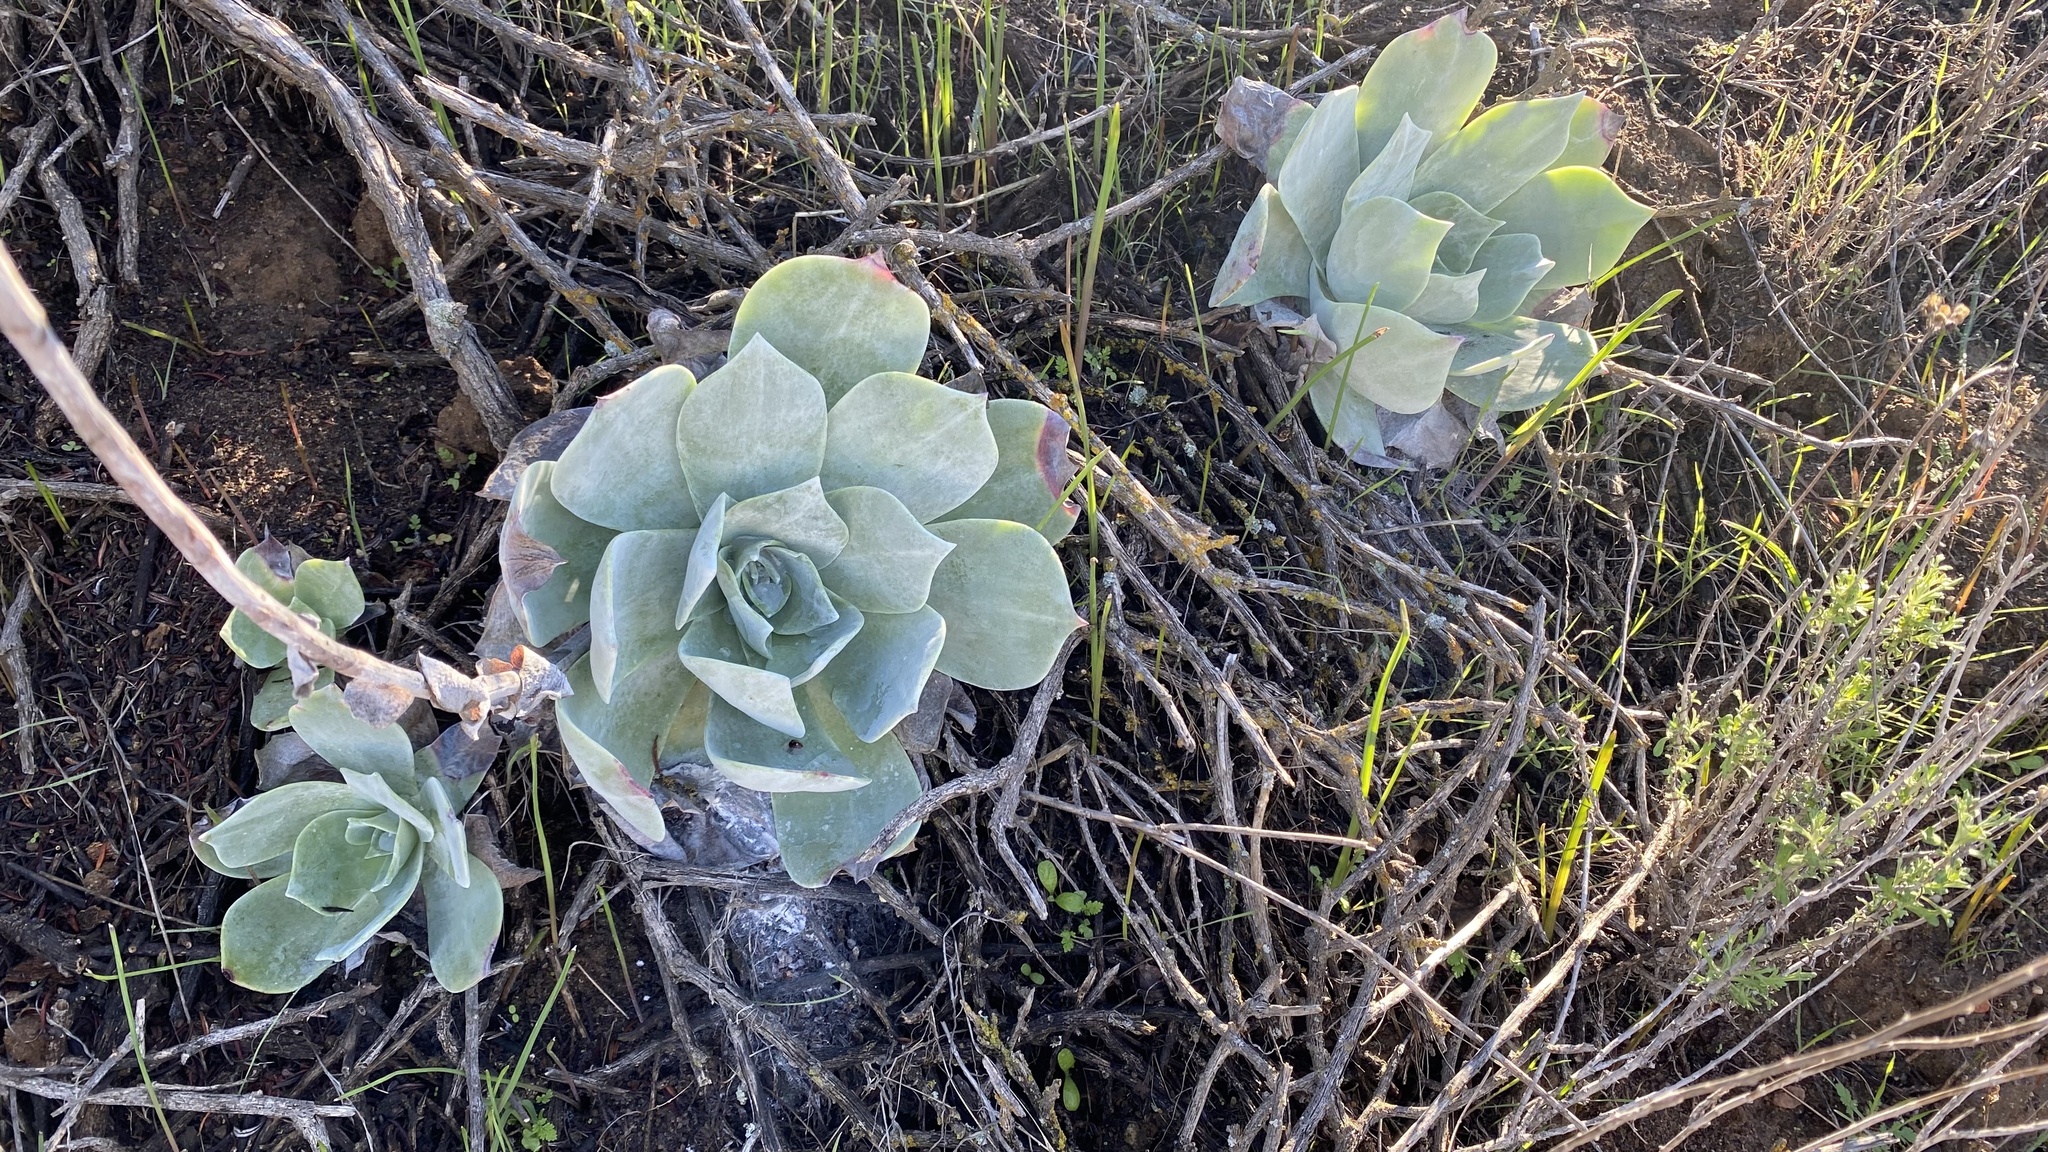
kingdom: Plantae
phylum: Tracheophyta
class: Magnoliopsida
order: Saxifragales
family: Crassulaceae
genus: Dudleya
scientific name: Dudleya pulverulenta
